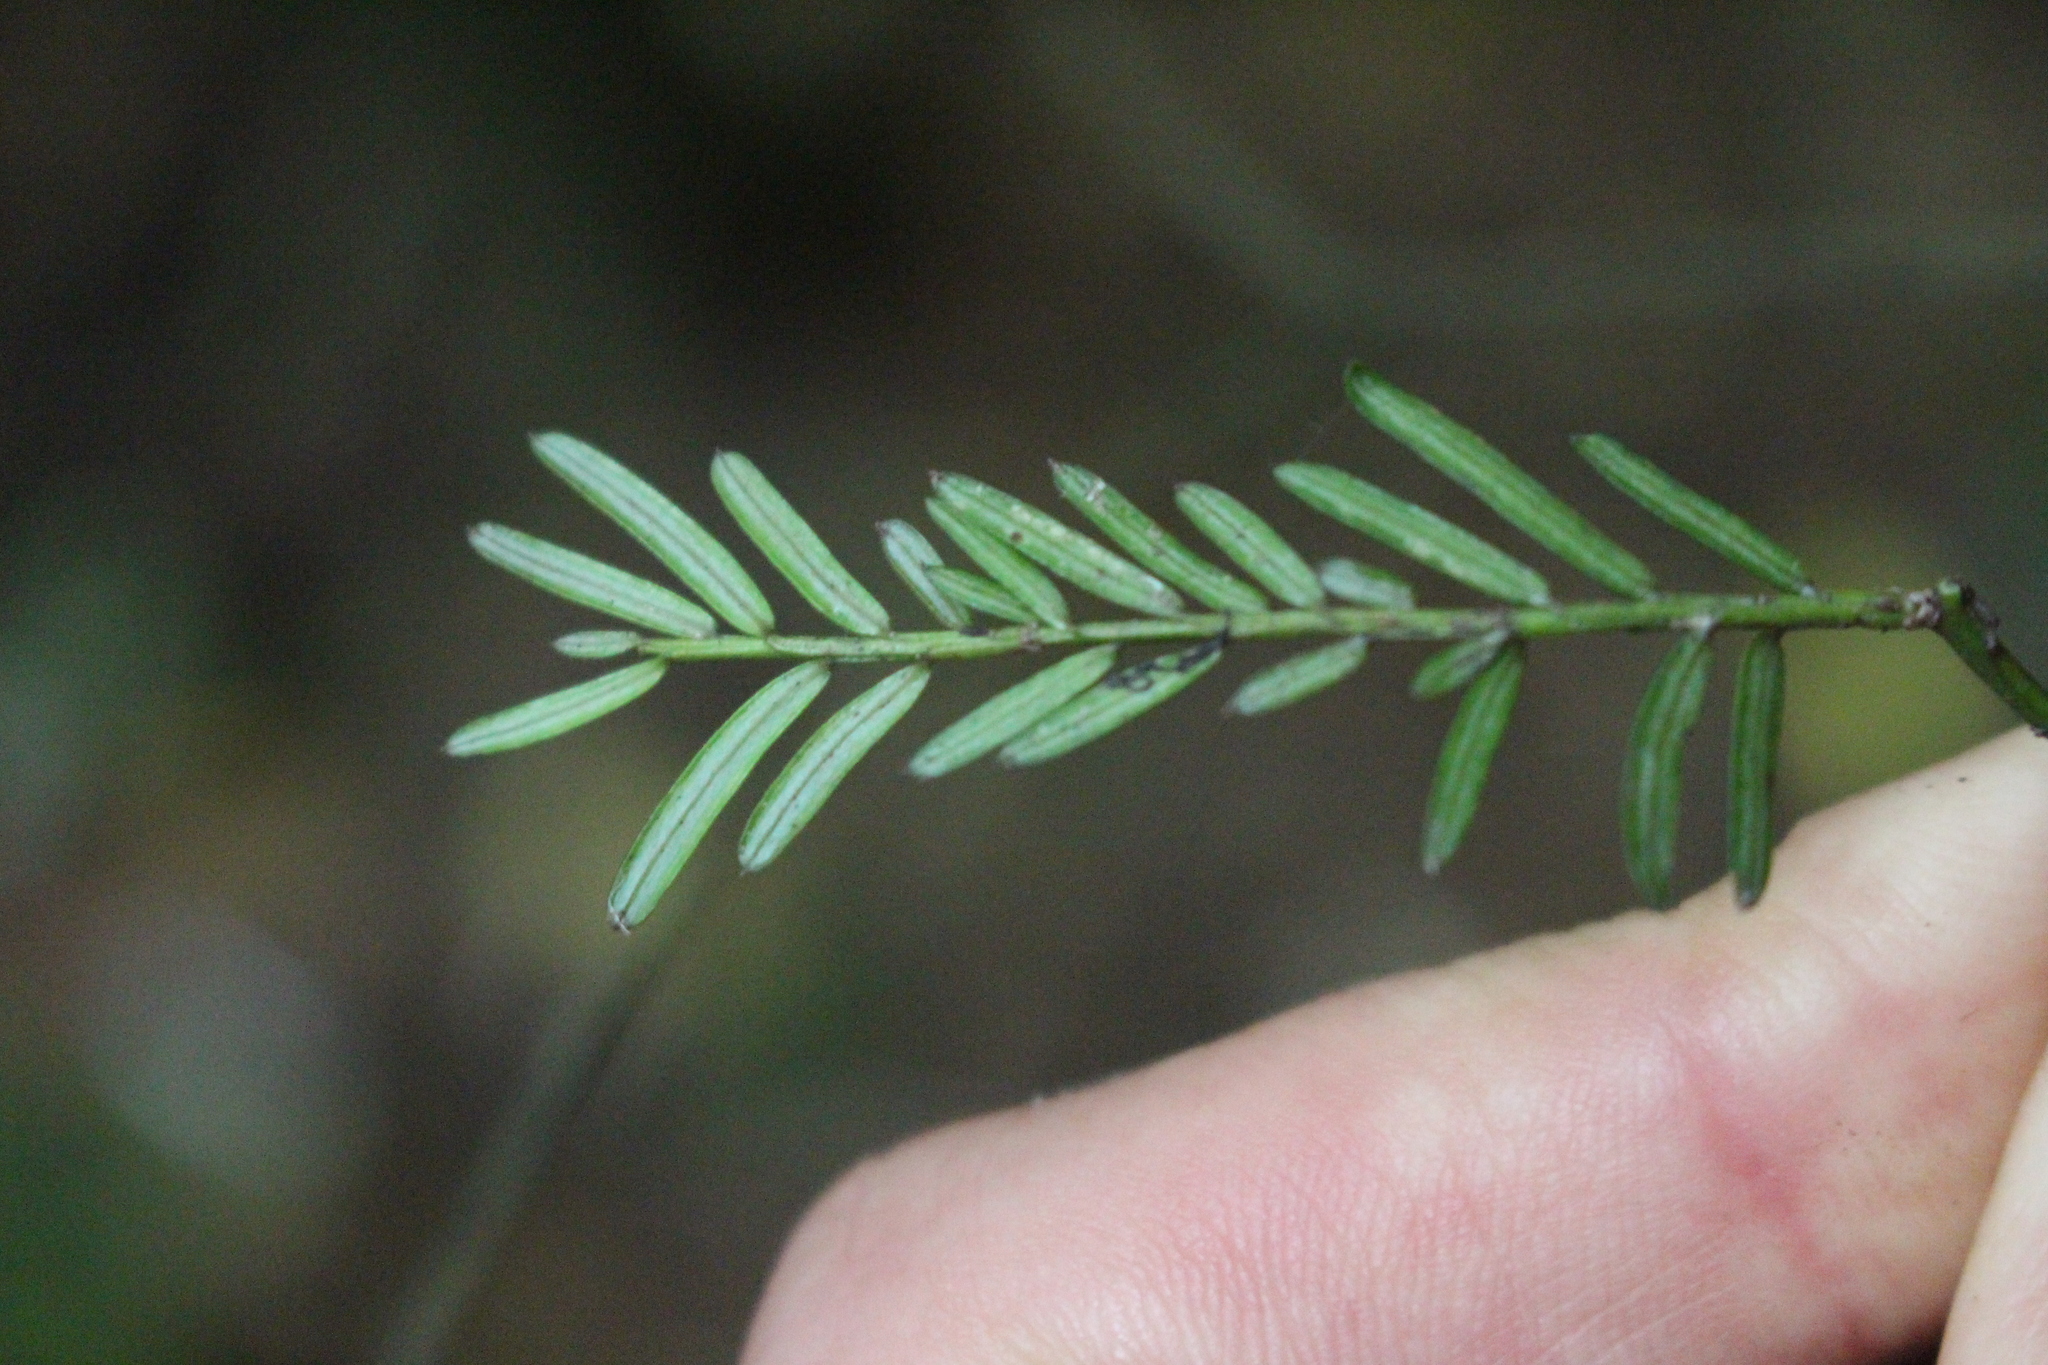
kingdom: Plantae
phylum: Tracheophyta
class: Pinopsida
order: Pinales
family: Podocarpaceae
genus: Prumnopitys
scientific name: Prumnopitys taxifolia
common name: Matai
